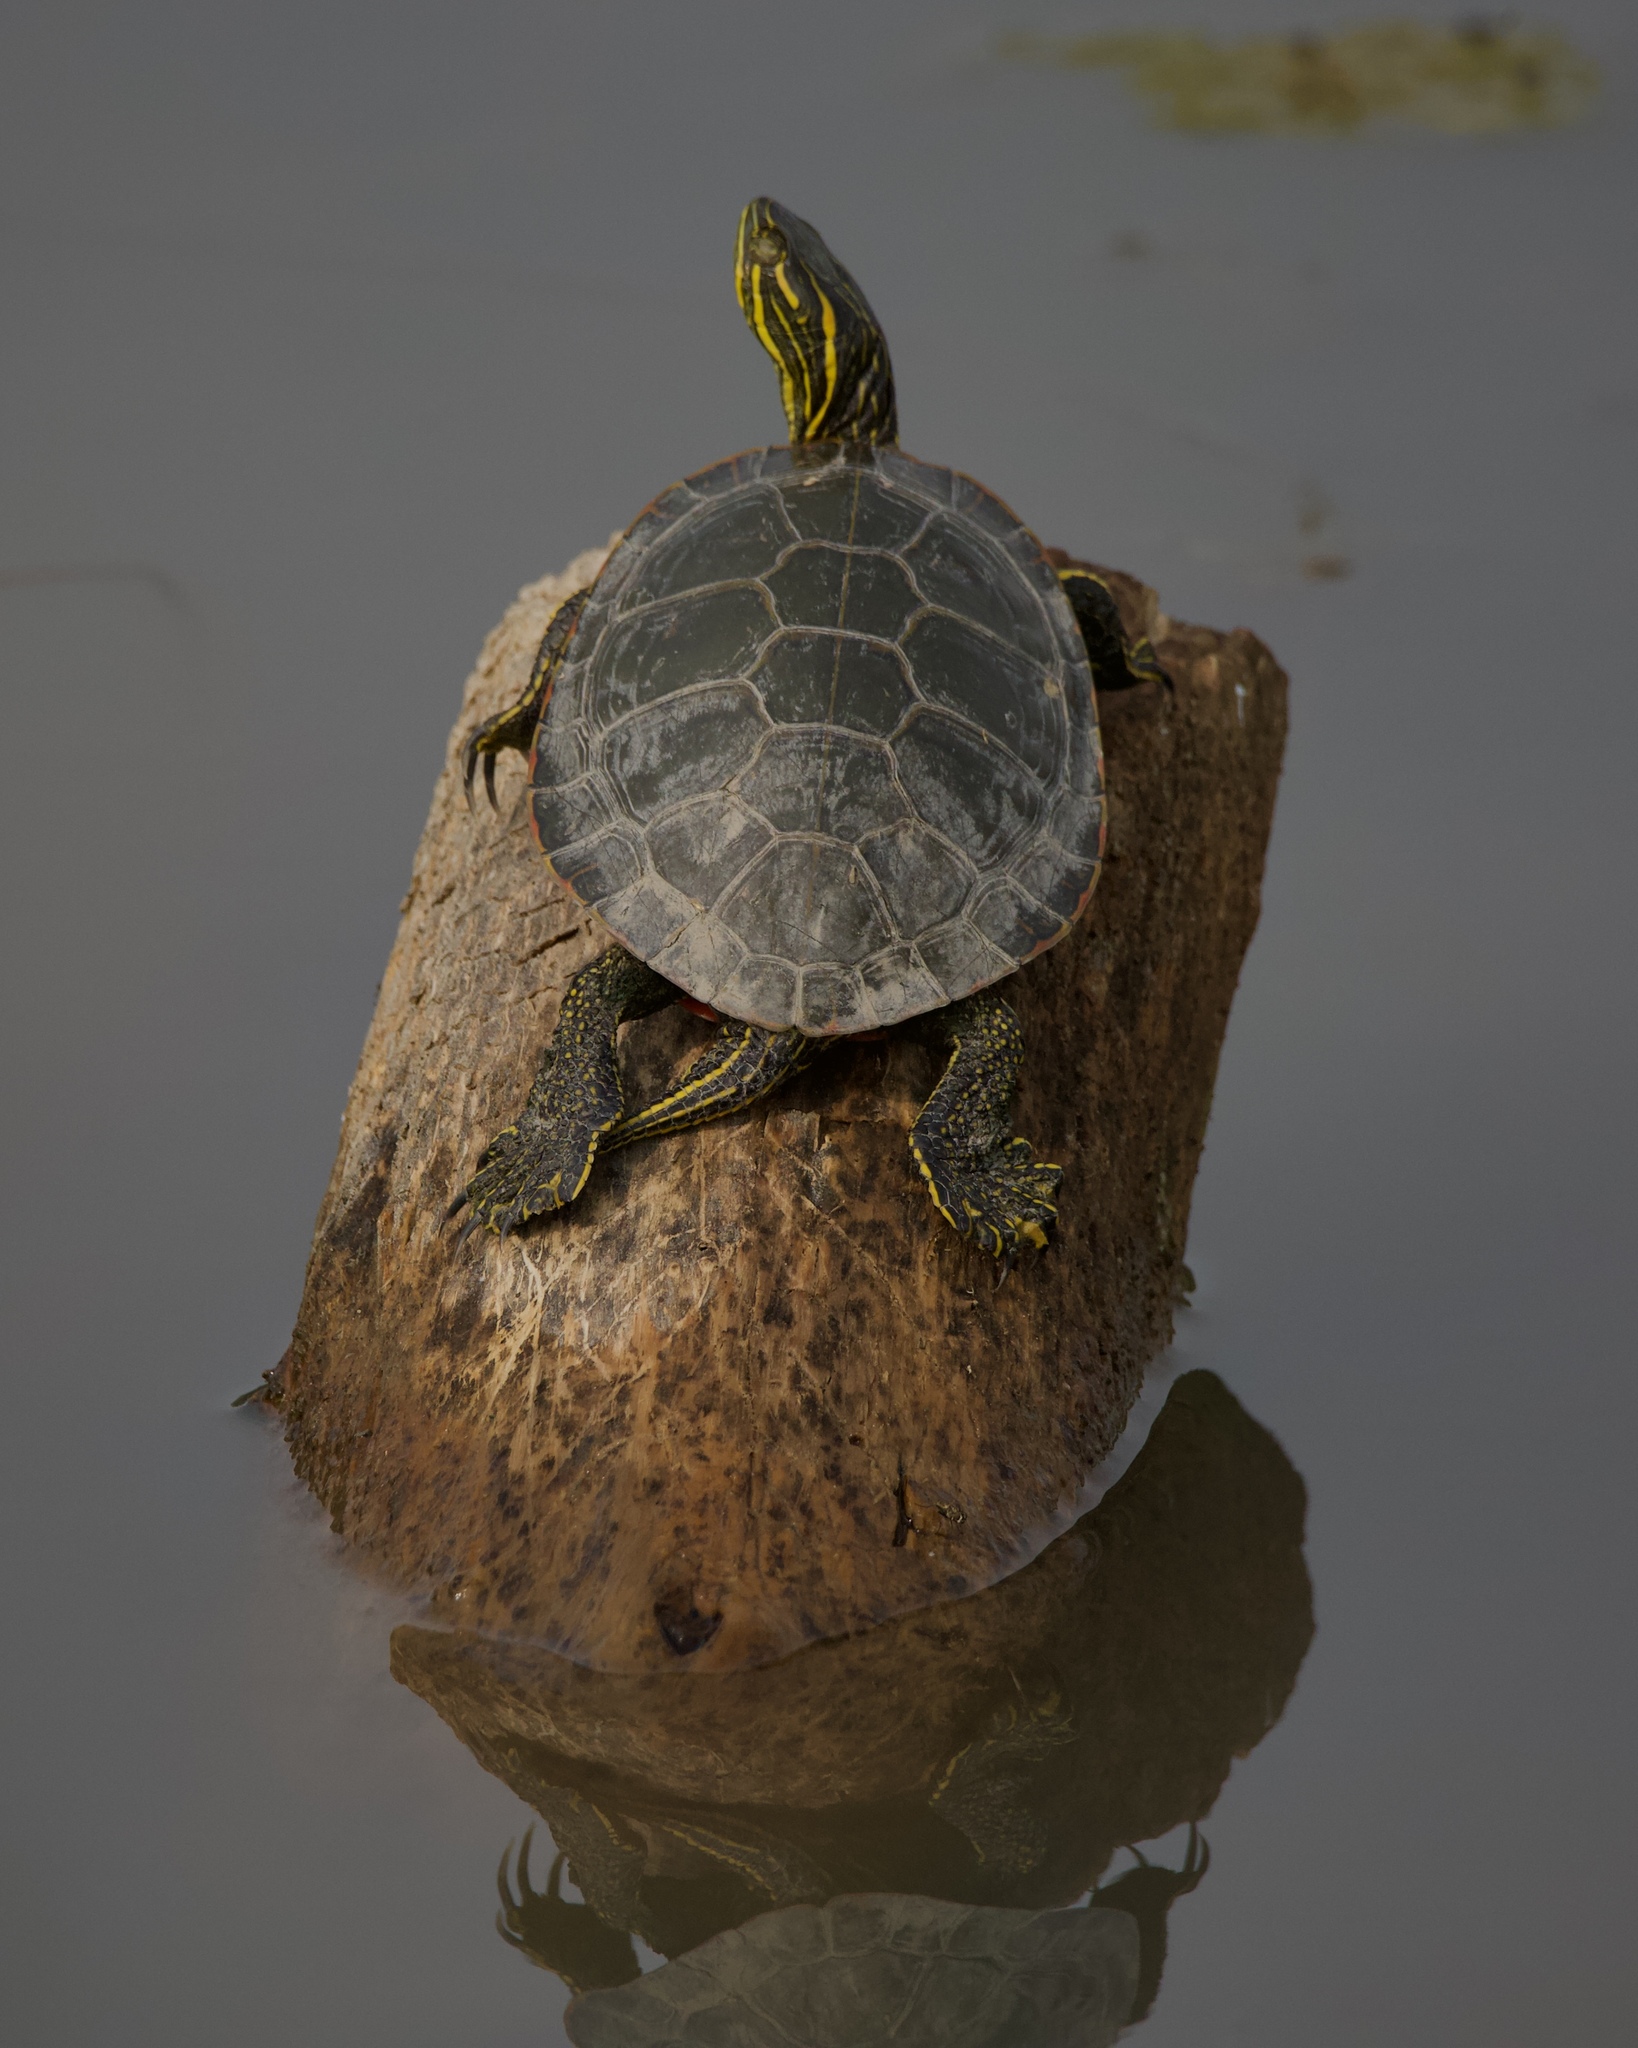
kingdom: Animalia
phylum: Chordata
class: Testudines
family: Emydidae
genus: Chrysemys
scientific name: Chrysemys picta
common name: Painted turtle
